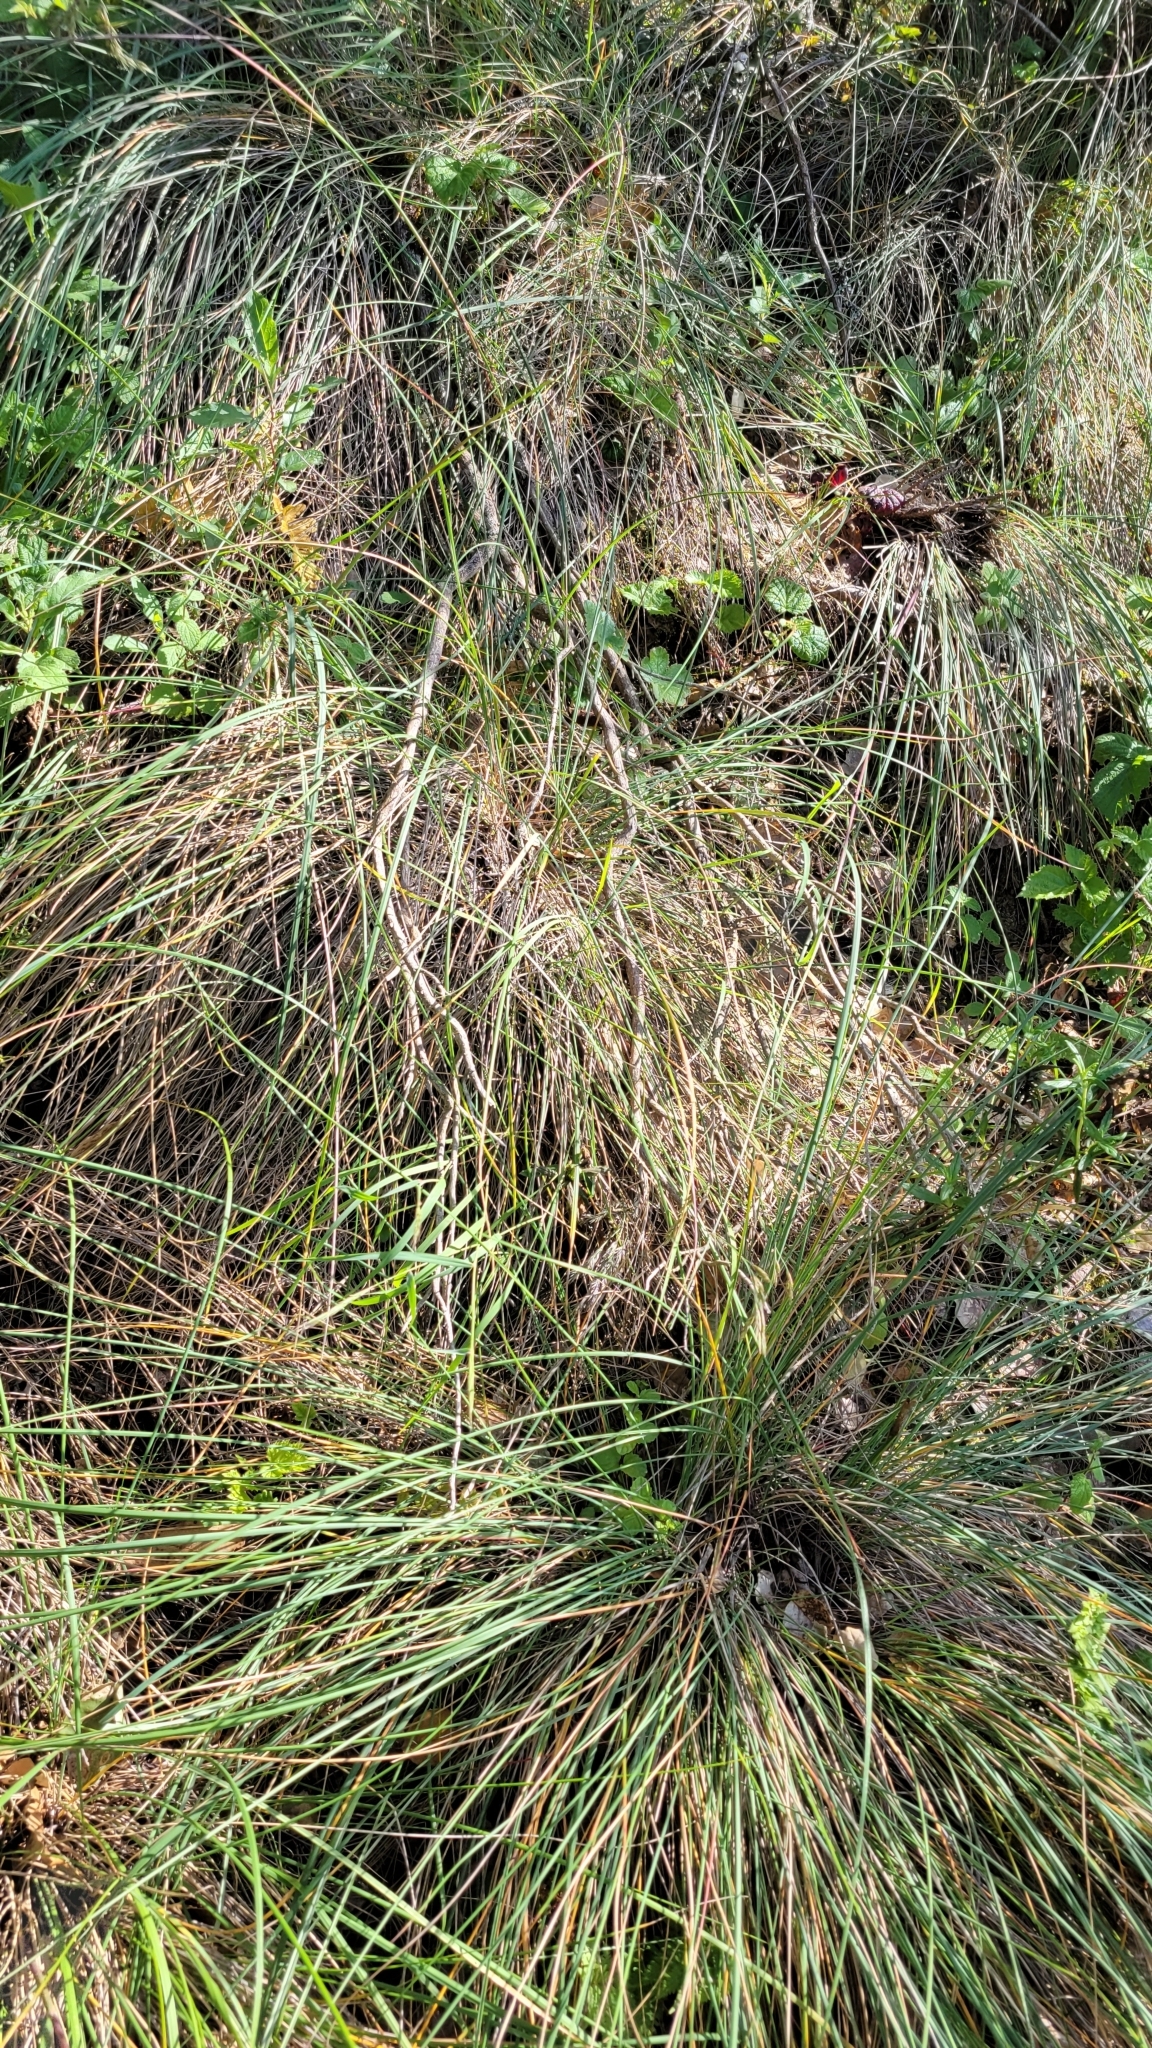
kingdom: Plantae
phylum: Tracheophyta
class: Liliopsida
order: Poales
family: Poaceae
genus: Festuca
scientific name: Festuca californica
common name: California fescue
